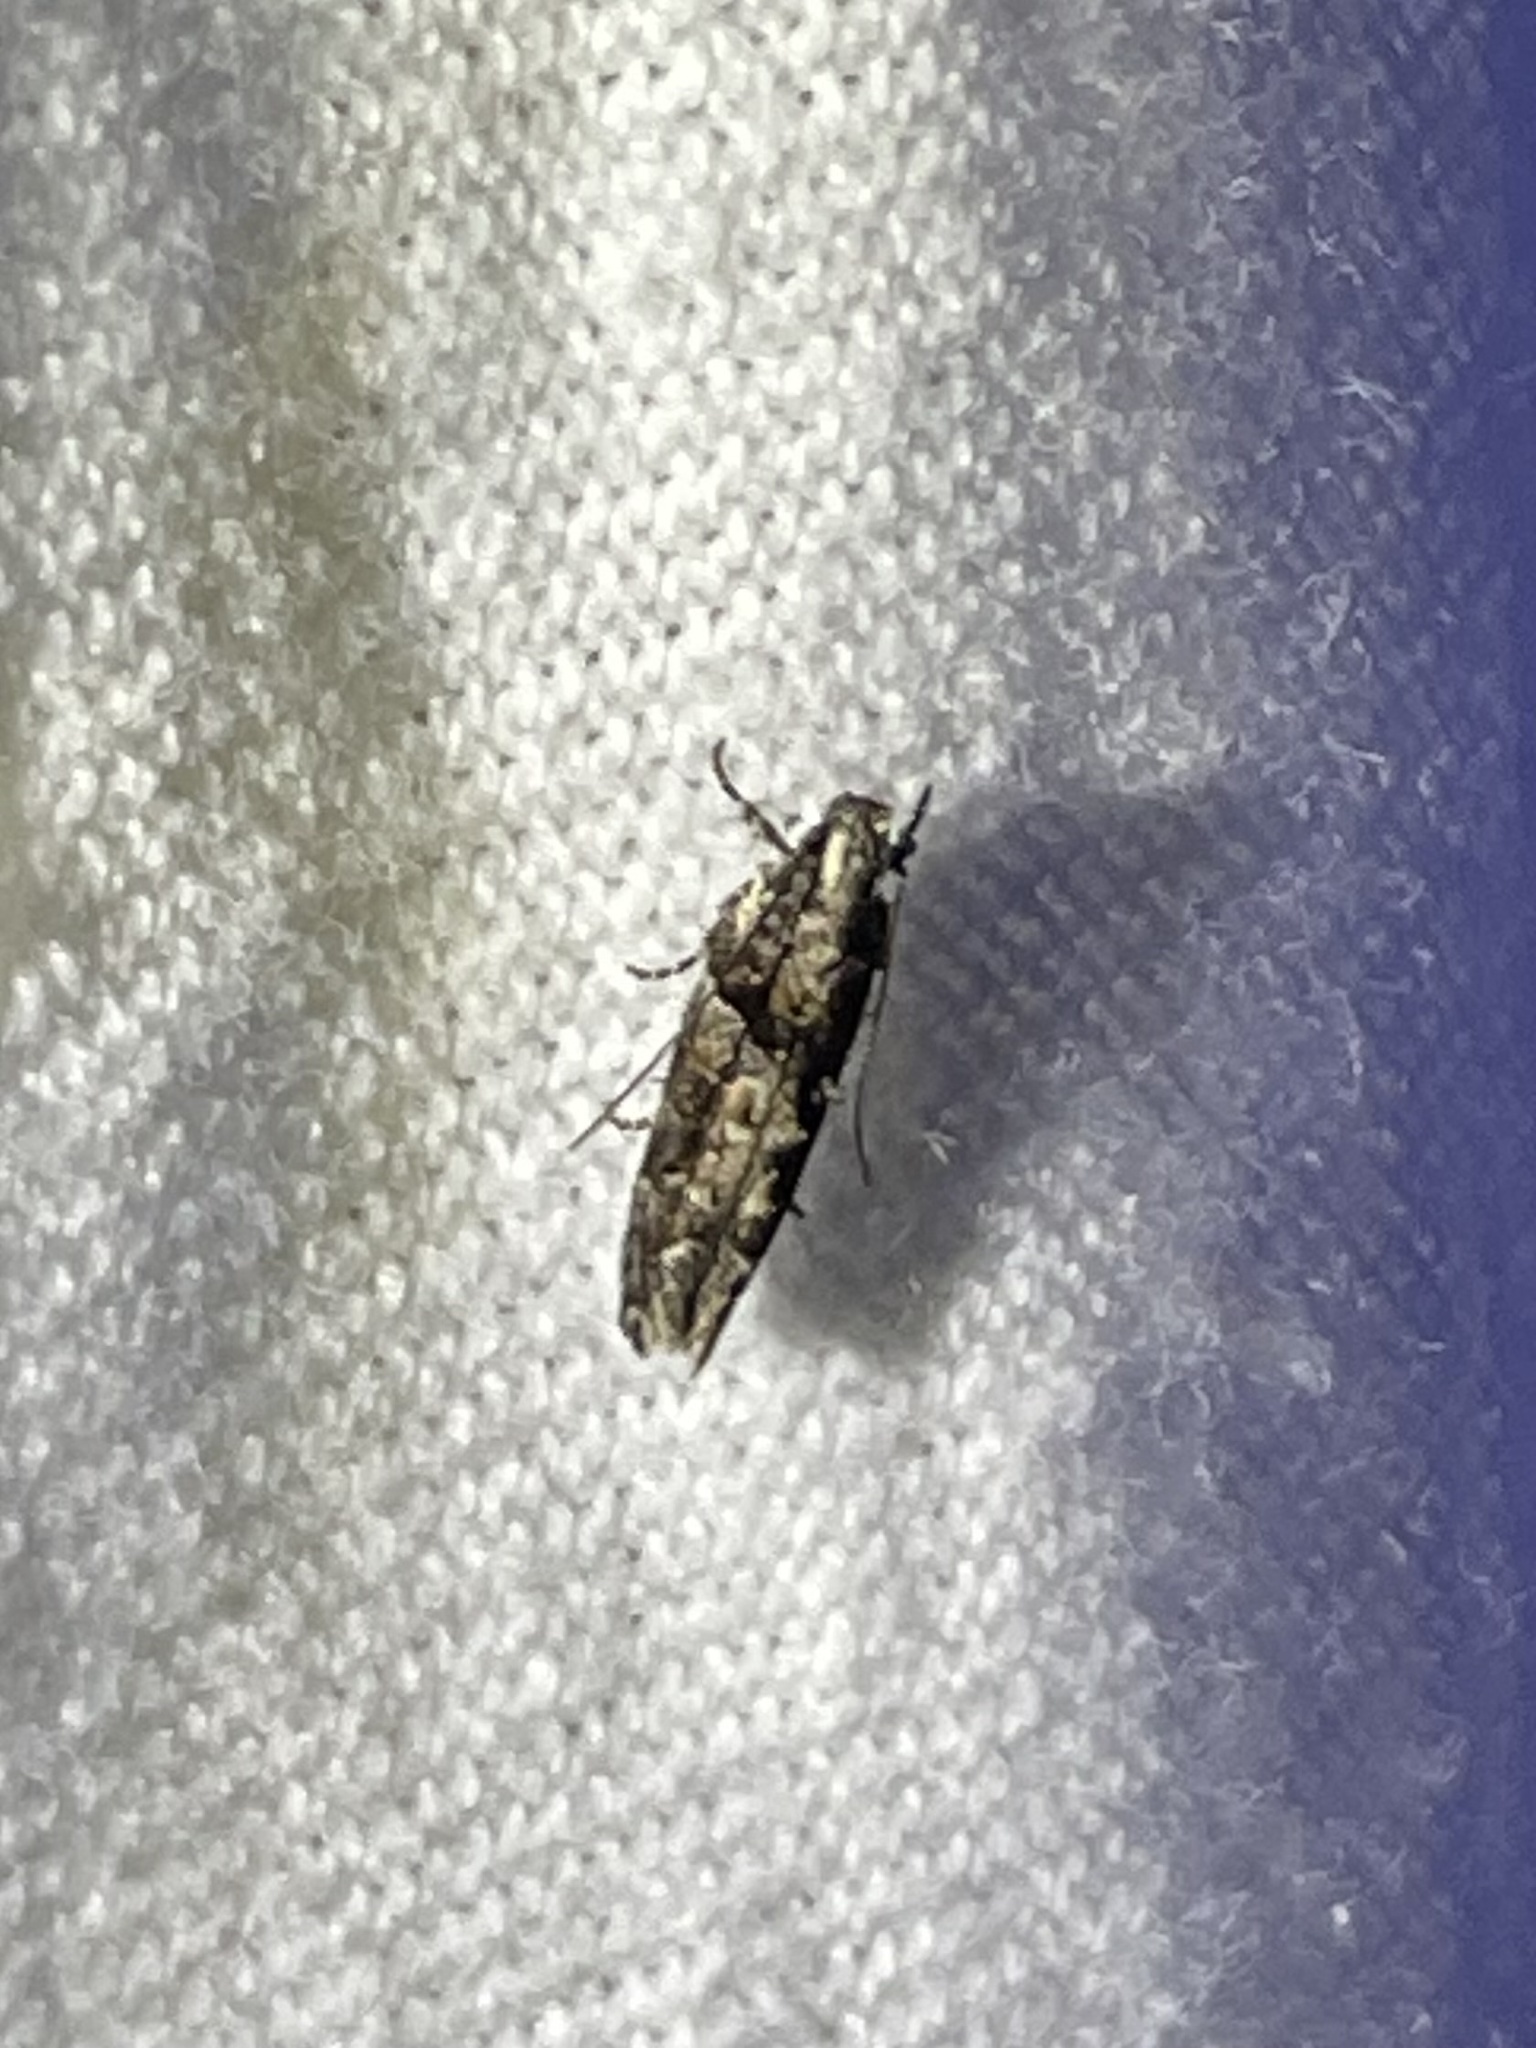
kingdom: Animalia
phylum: Arthropoda
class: Insecta
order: Lepidoptera
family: Gelechiidae
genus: Telphusa
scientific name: Telphusa perspicua
